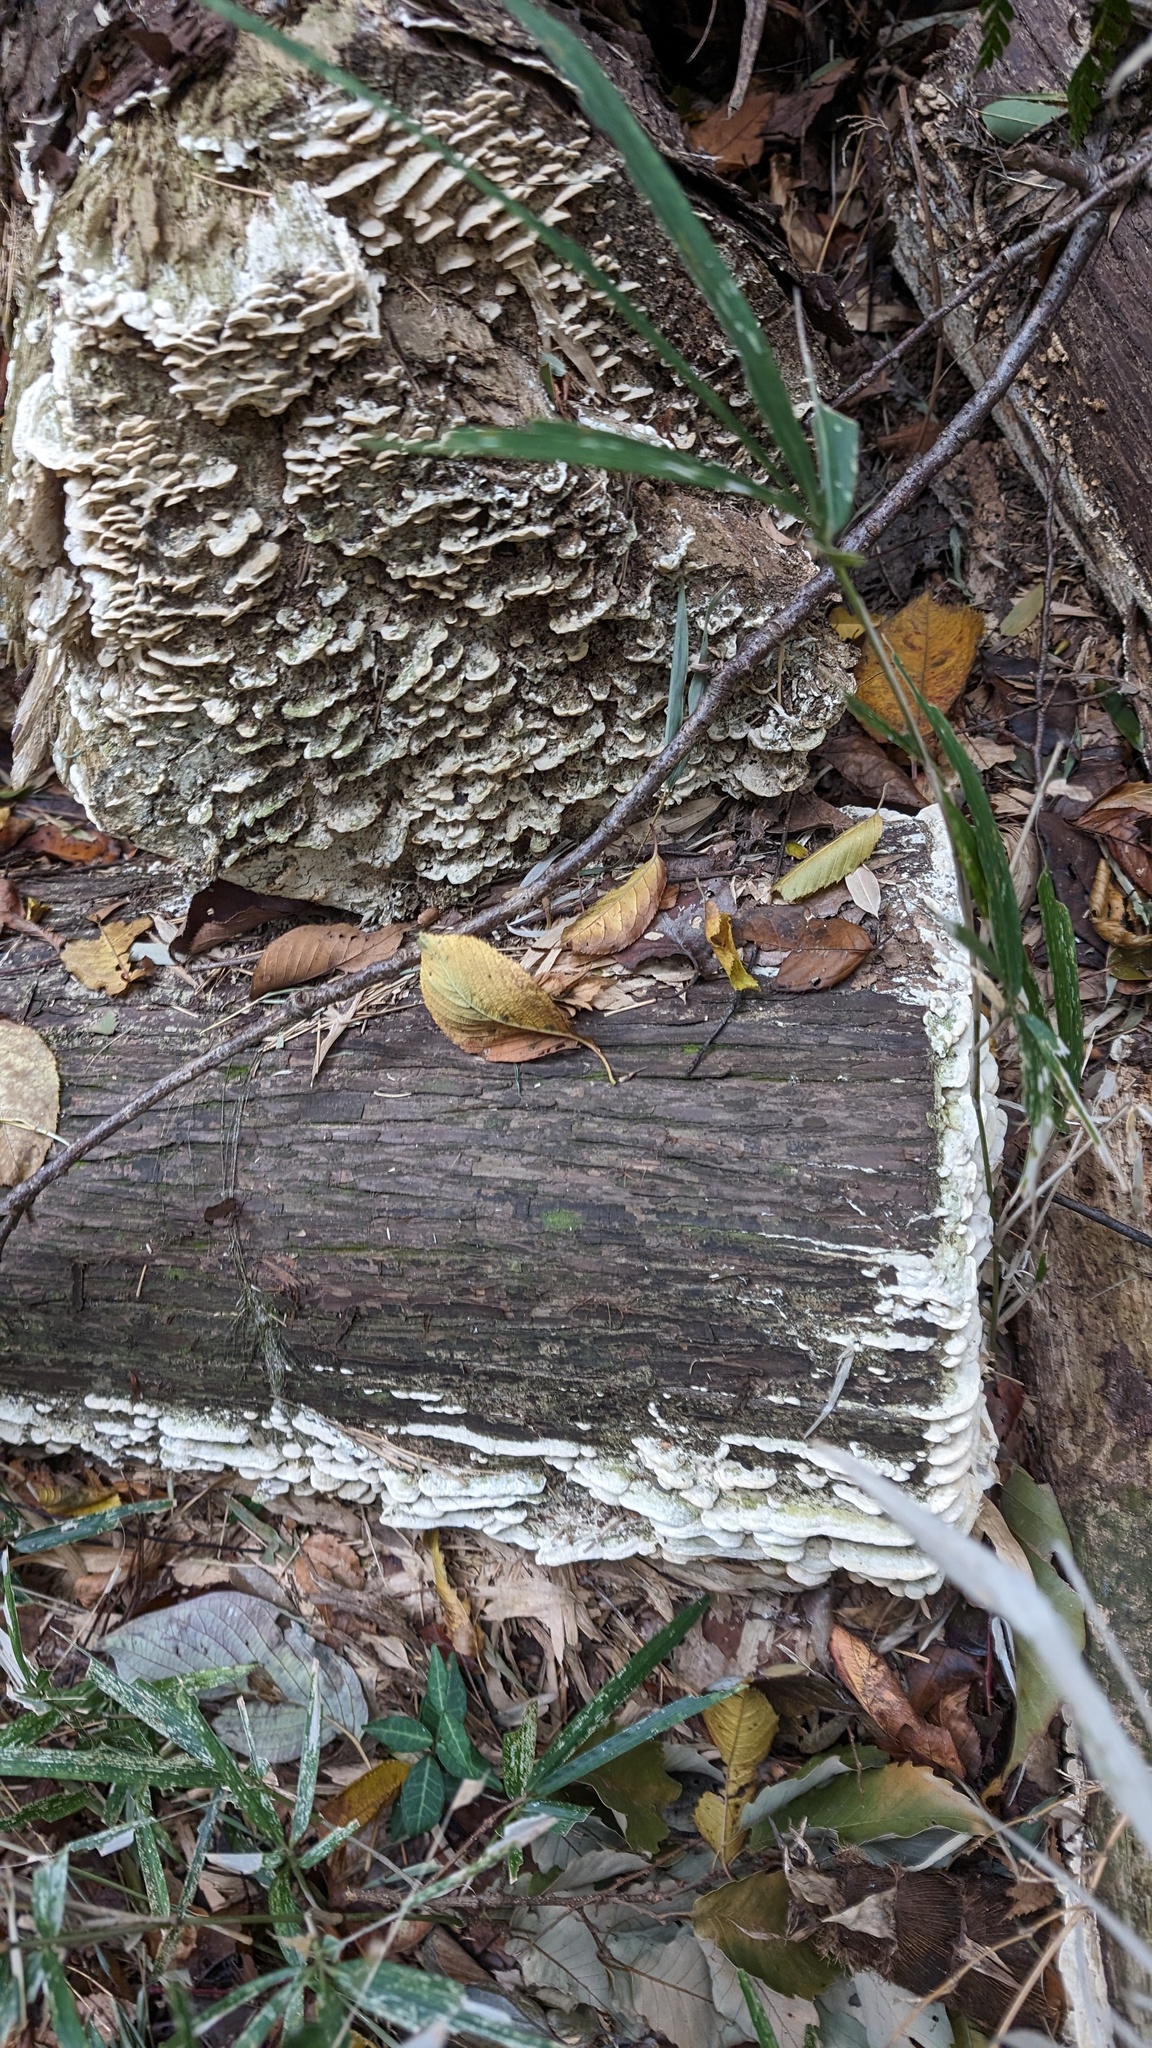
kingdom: Fungi
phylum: Basidiomycota
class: Agaricomycetes
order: Hymenochaetales
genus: Cyanotrama
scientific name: Cyanotrama
